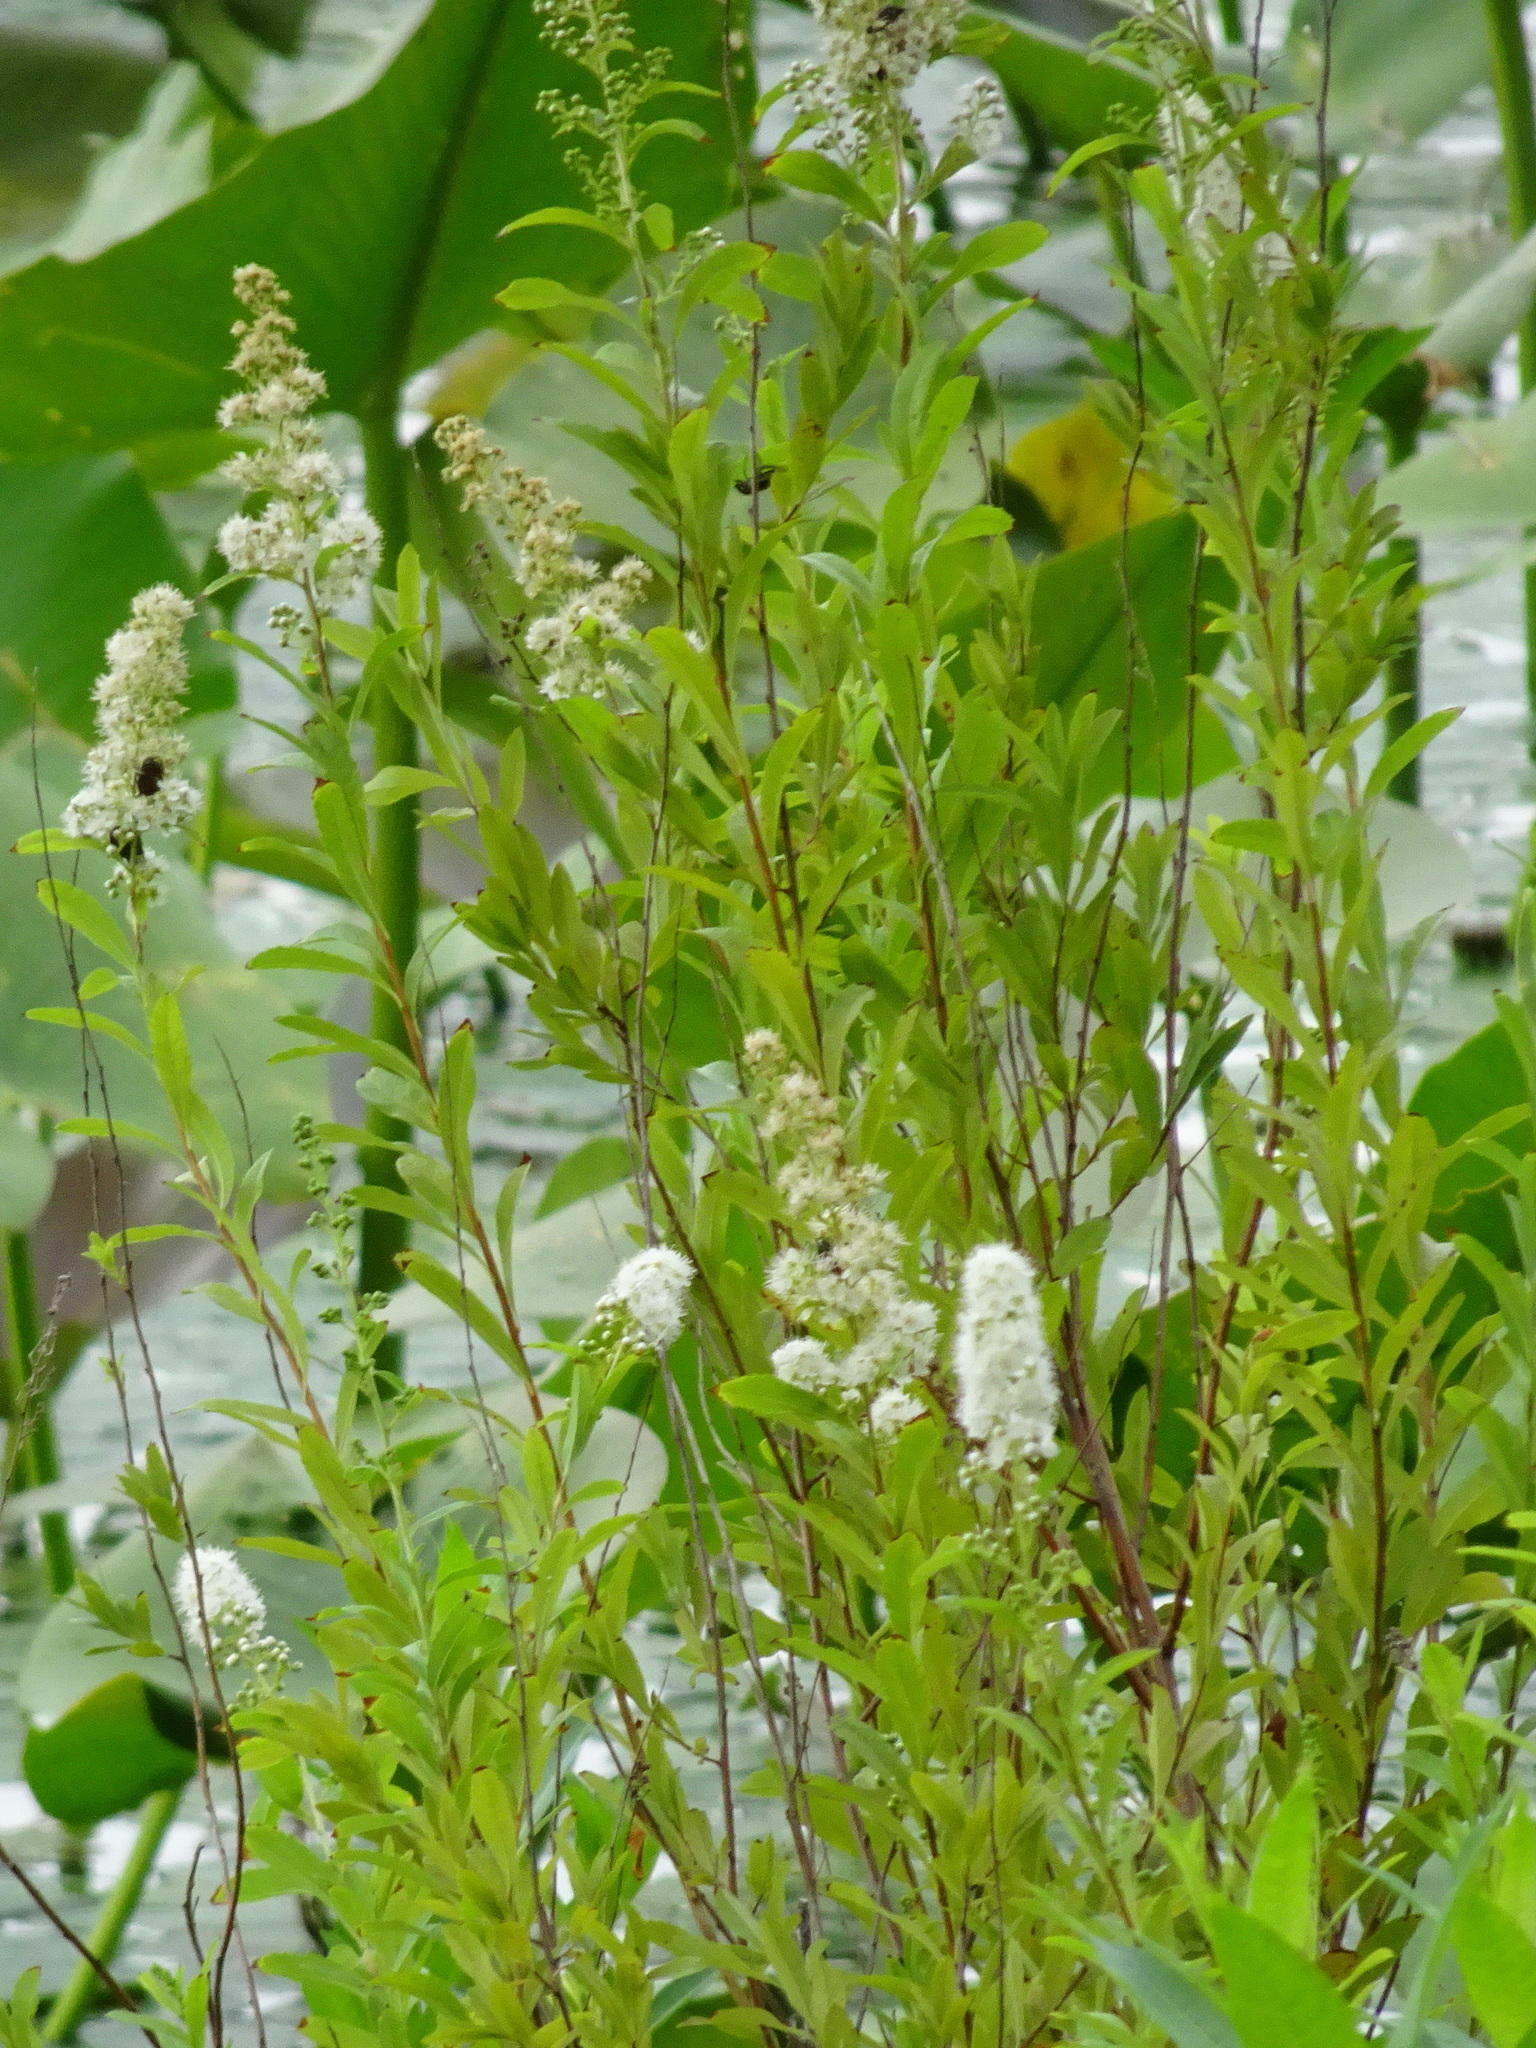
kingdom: Plantae
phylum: Tracheophyta
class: Magnoliopsida
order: Rosales
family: Rosaceae
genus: Spiraea
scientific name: Spiraea alba
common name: Pale bridewort
